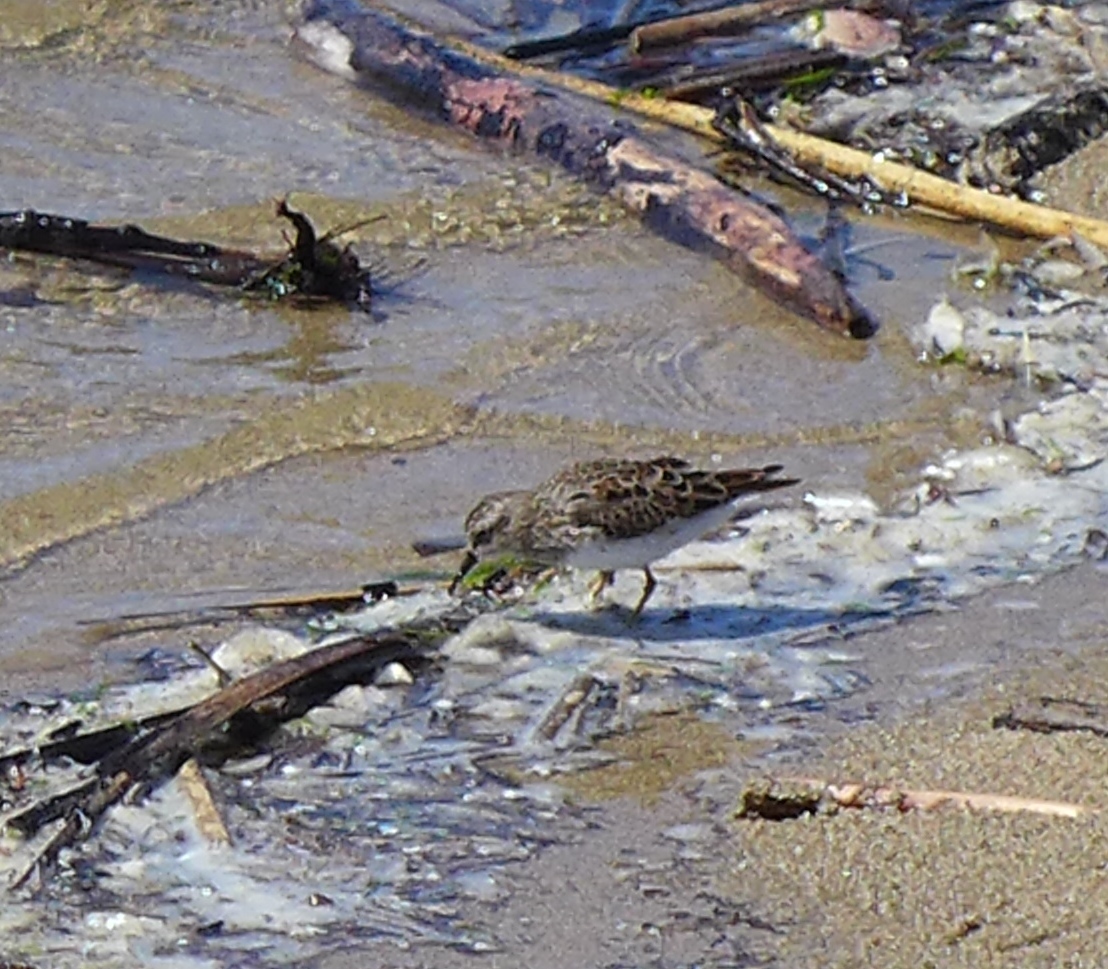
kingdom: Animalia
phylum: Chordata
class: Aves
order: Charadriiformes
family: Scolopacidae
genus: Calidris
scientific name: Calidris minutilla
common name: Least sandpiper
